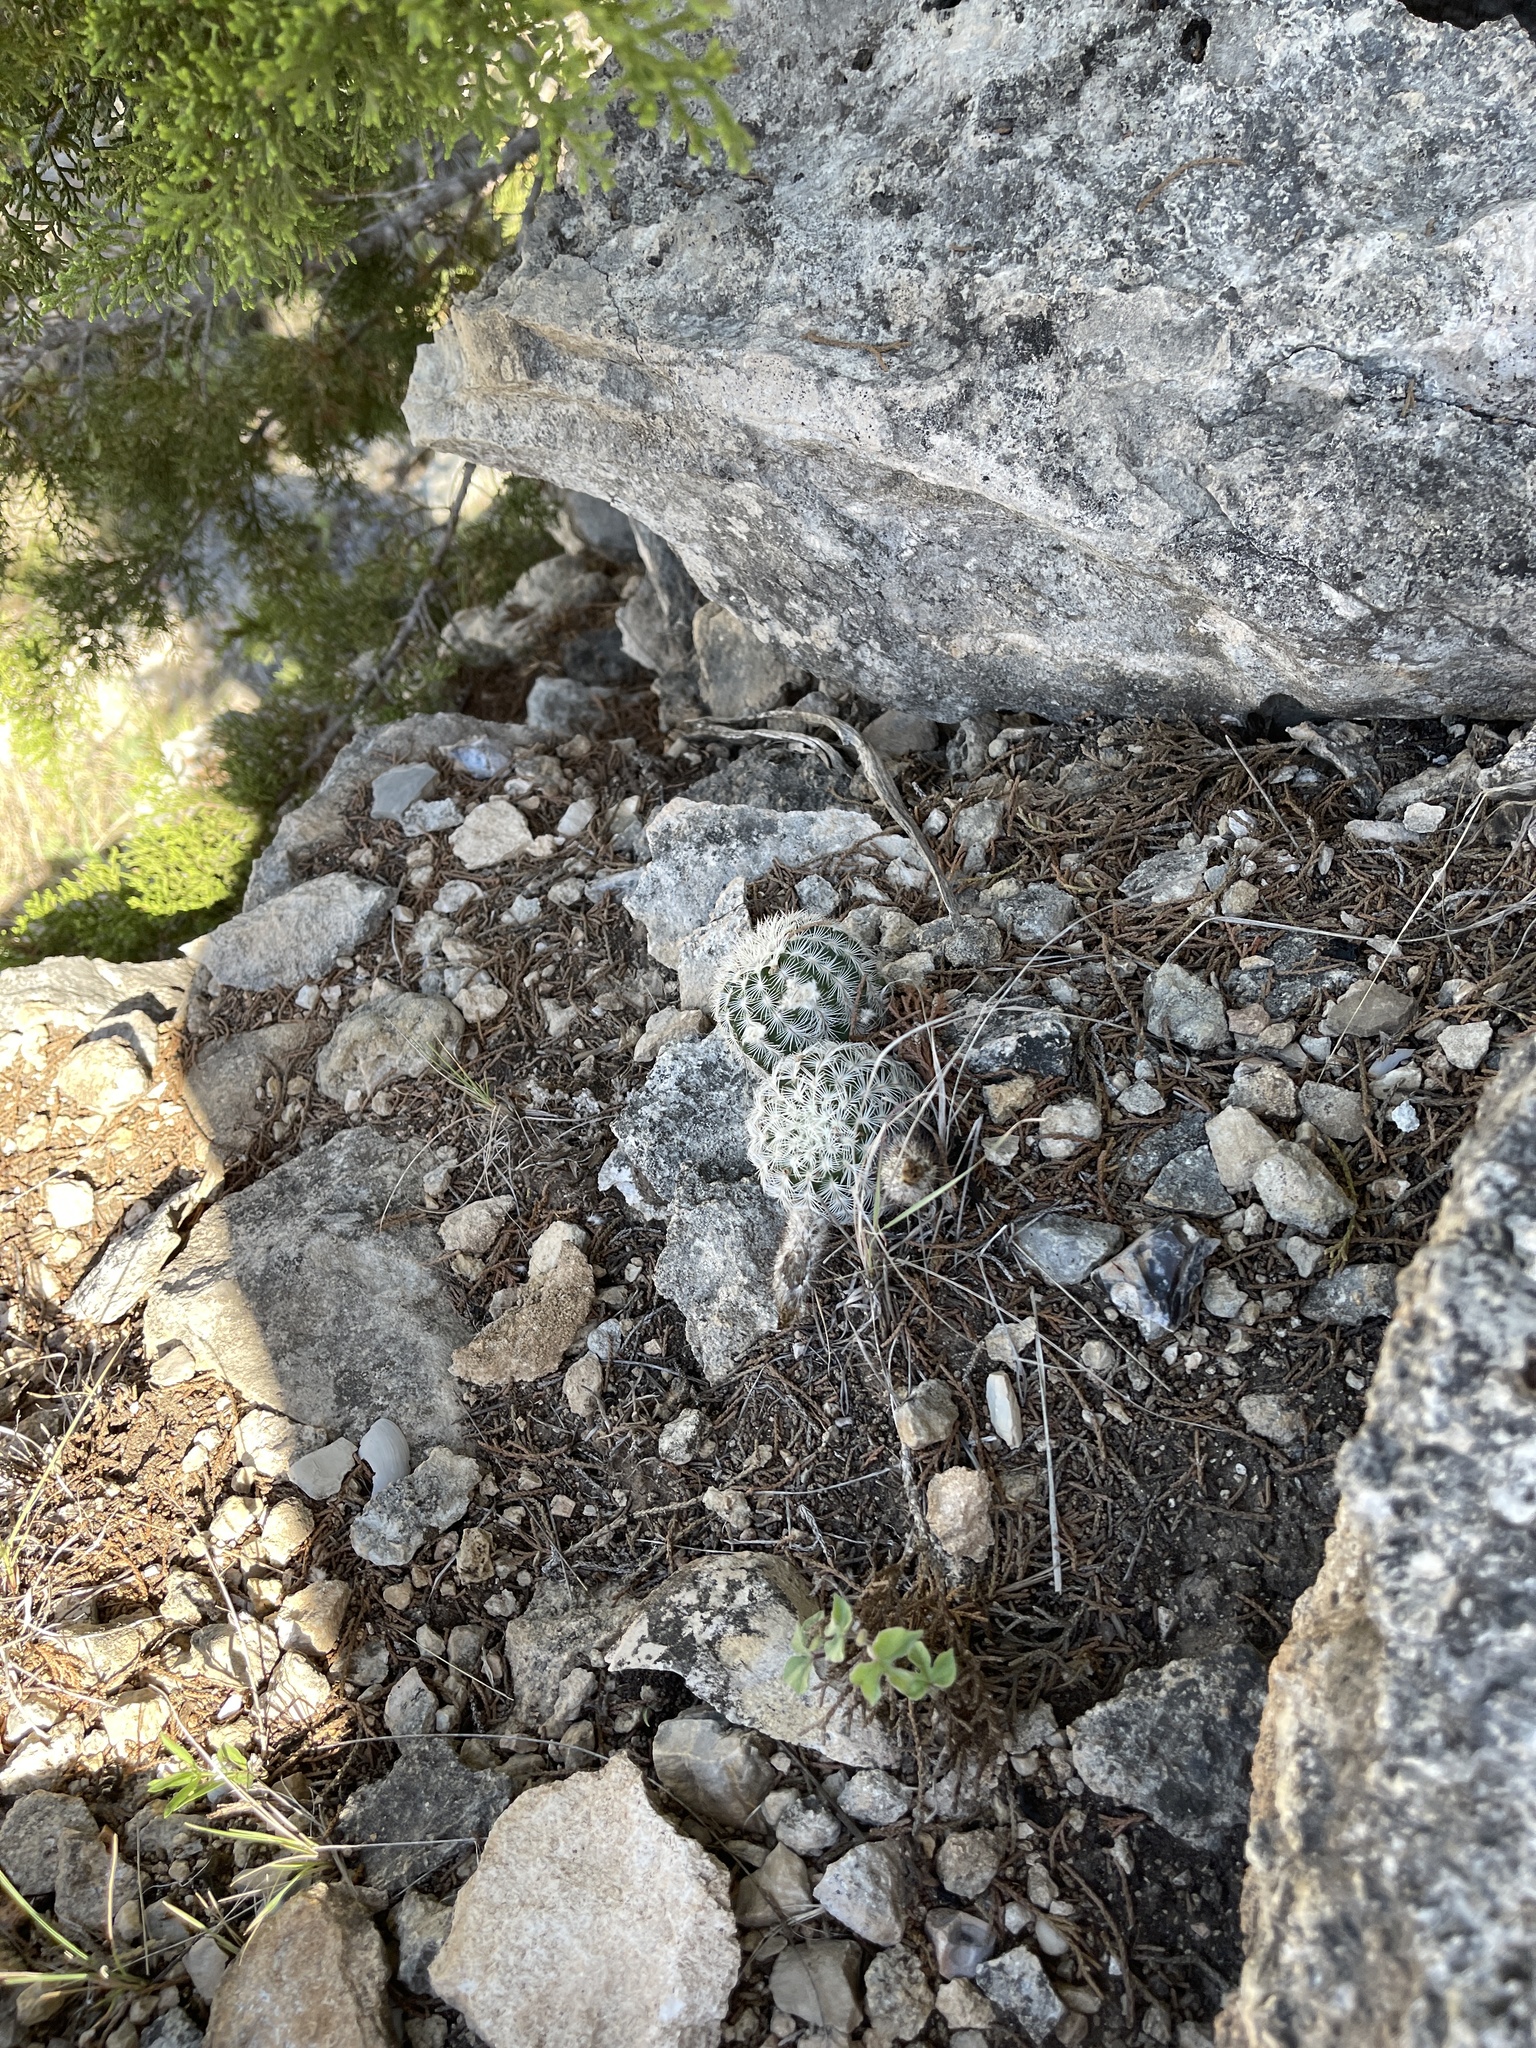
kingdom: Plantae
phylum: Tracheophyta
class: Magnoliopsida
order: Caryophyllales
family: Cactaceae
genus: Echinocereus
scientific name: Echinocereus reichenbachii
